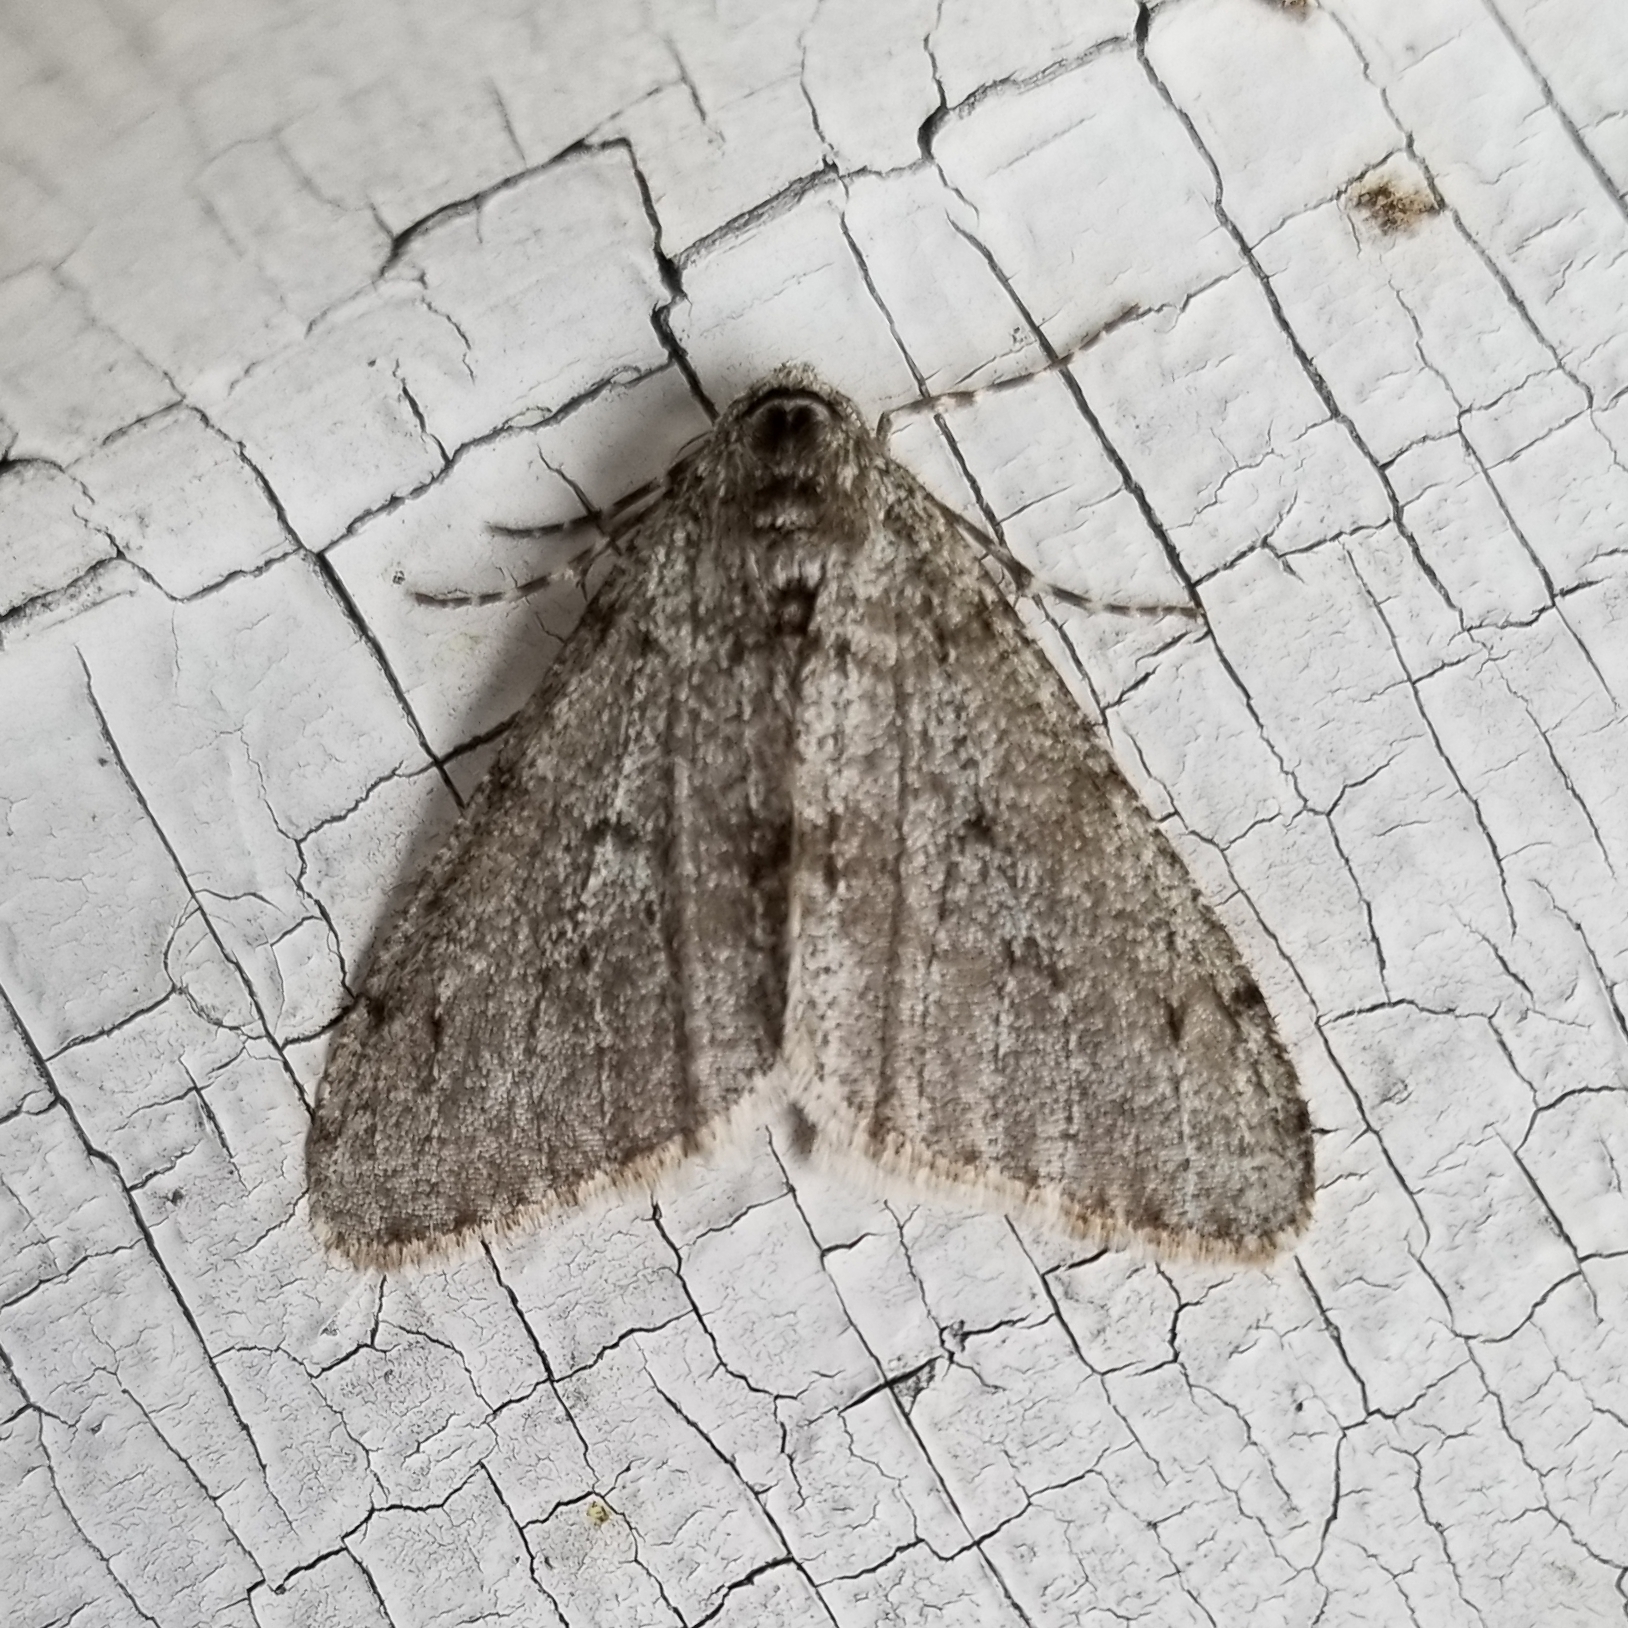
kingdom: Animalia
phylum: Arthropoda
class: Insecta
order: Lepidoptera
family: Geometridae
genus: Phigalia
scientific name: Phigalia strigataria
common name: Small phigalia
